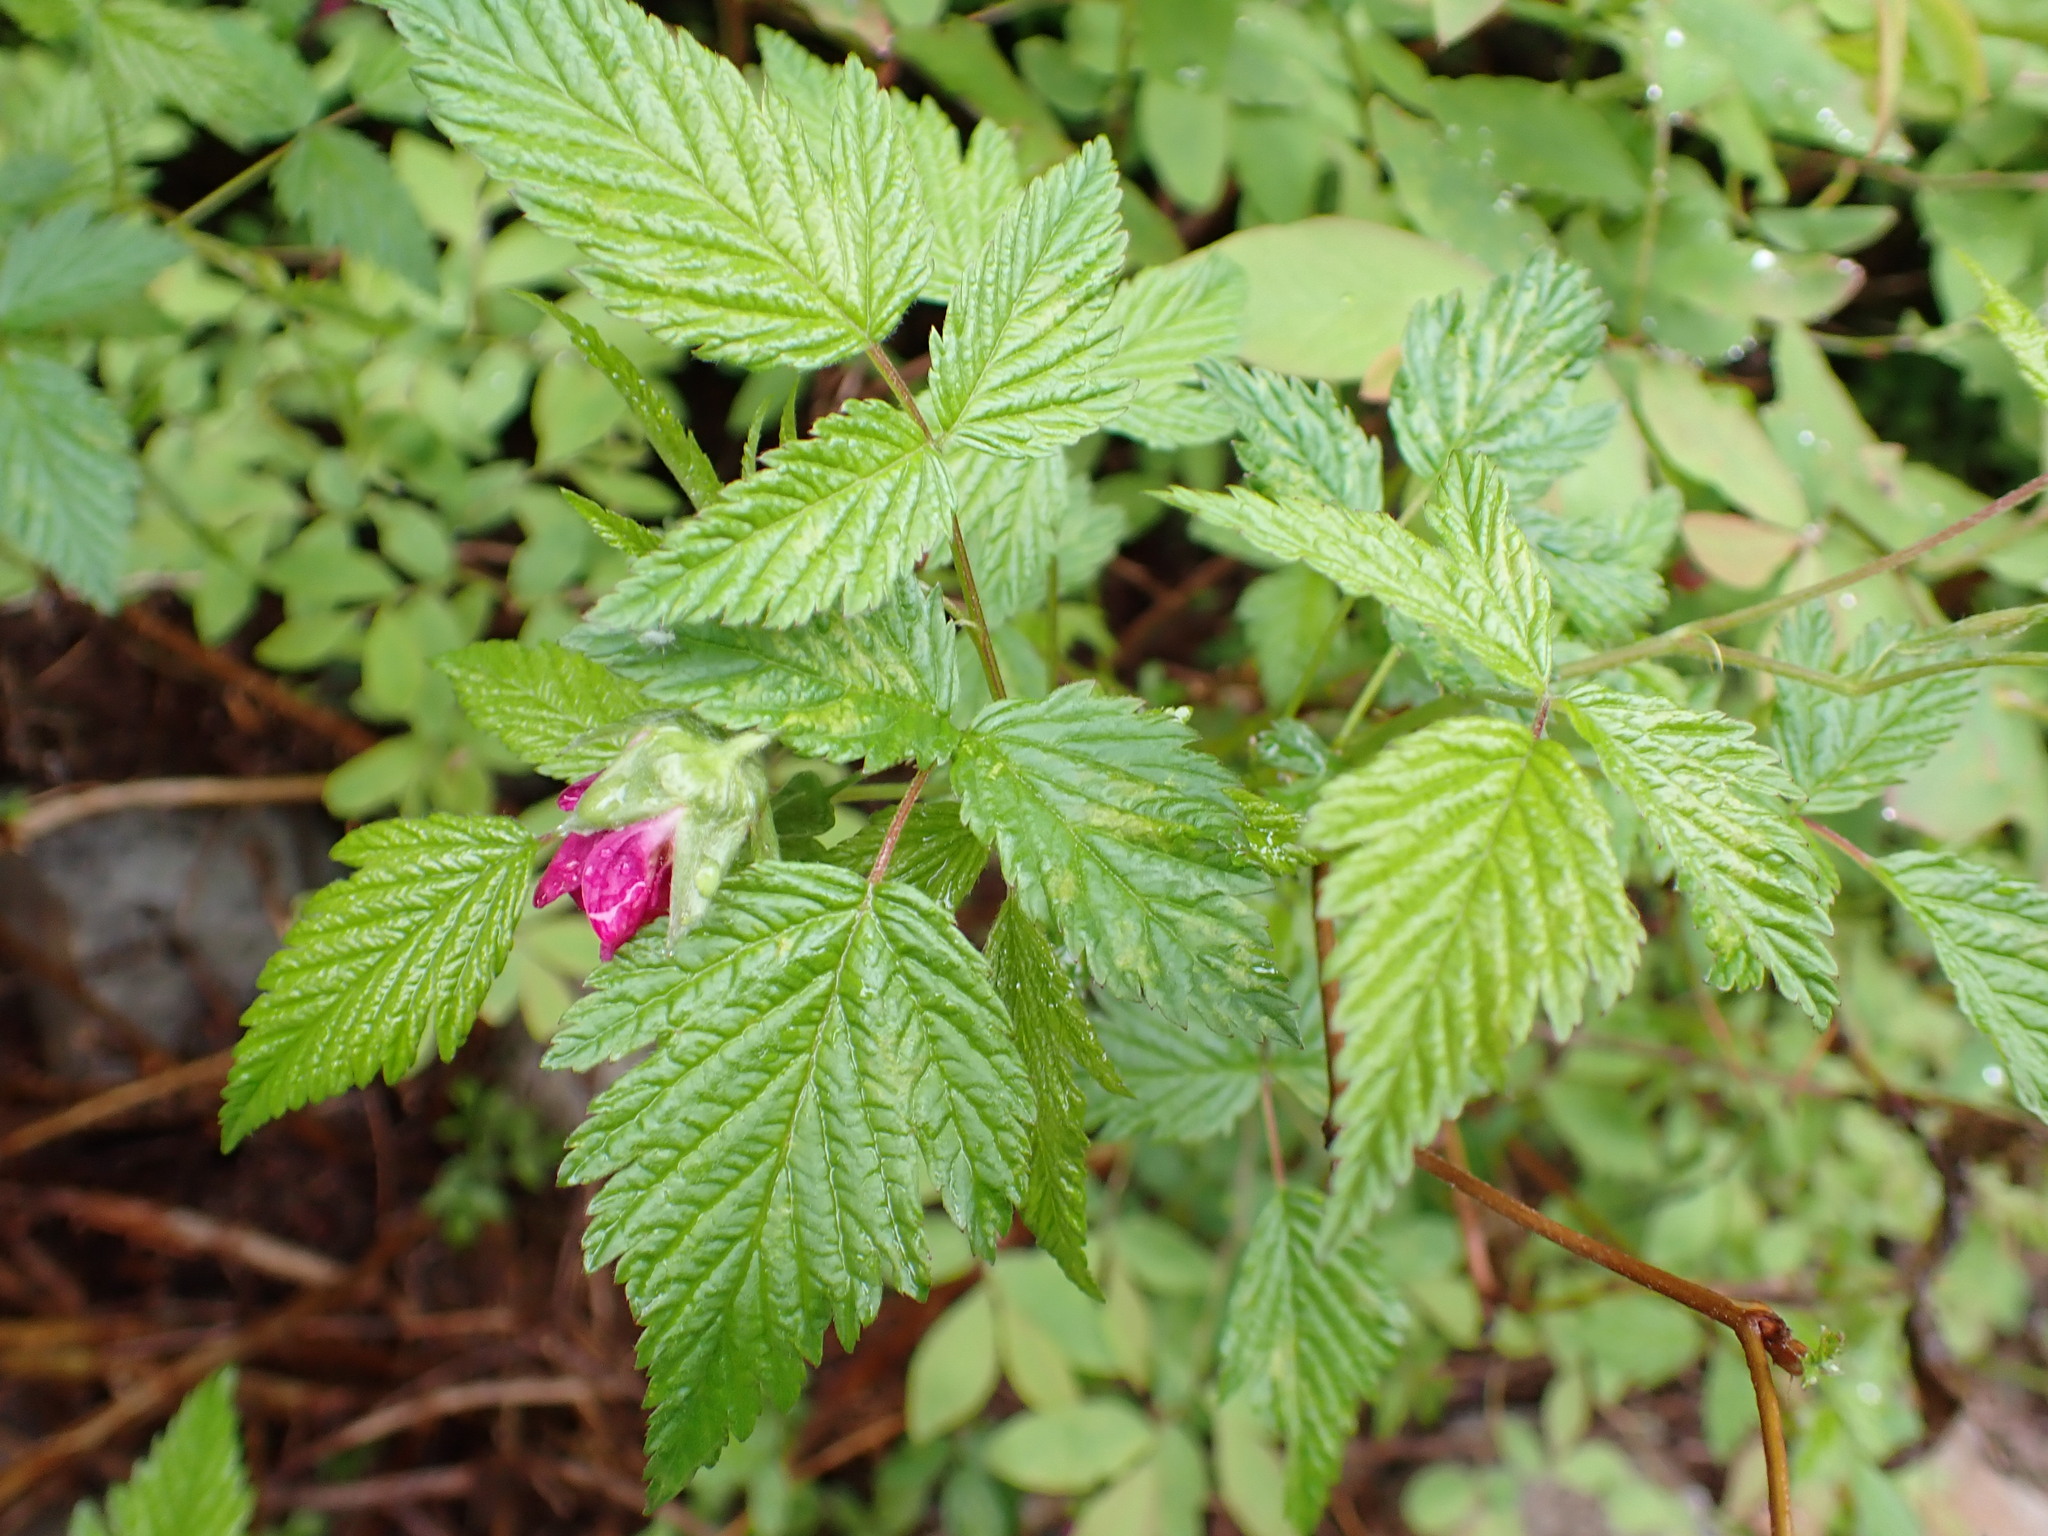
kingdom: Plantae
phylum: Tracheophyta
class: Magnoliopsida
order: Rosales
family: Rosaceae
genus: Rubus
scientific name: Rubus spectabilis
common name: Salmonberry
